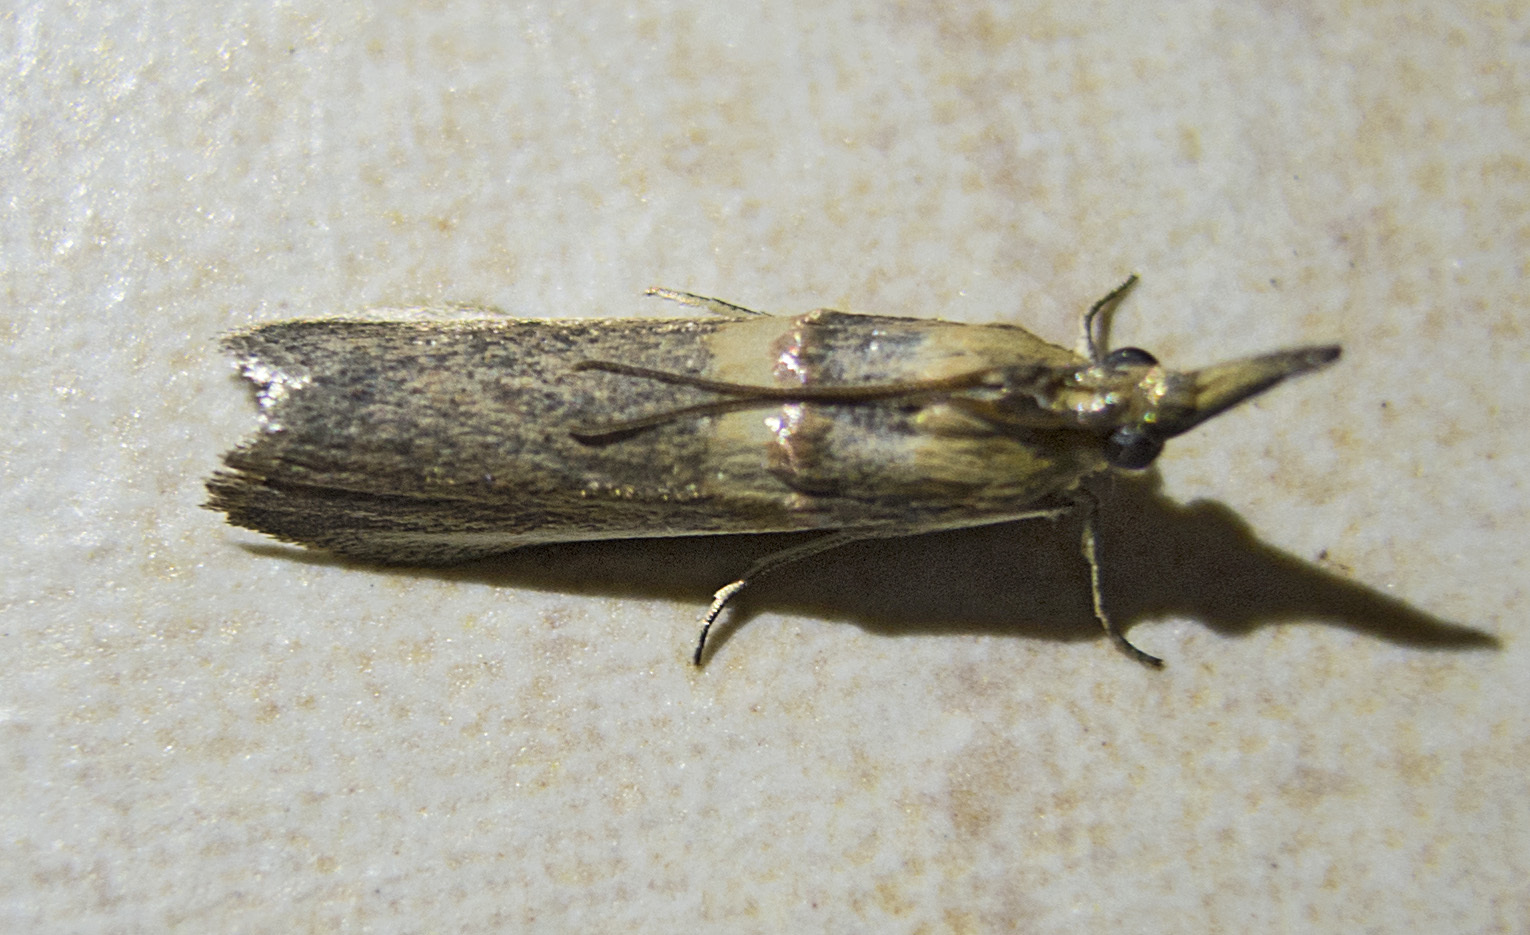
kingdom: Animalia
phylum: Arthropoda
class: Insecta
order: Lepidoptera
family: Pyralidae
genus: Etiella
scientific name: Etiella zinckenella
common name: Gold-banded etiella moth
